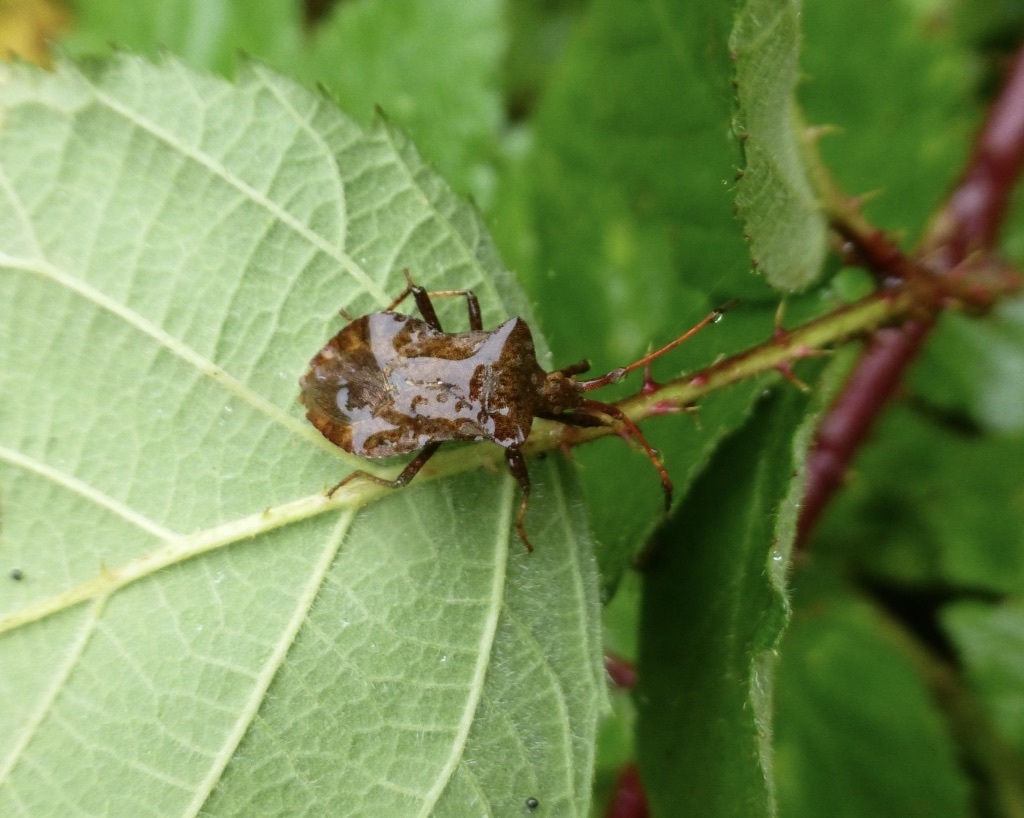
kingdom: Animalia
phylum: Arthropoda
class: Insecta
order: Hemiptera
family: Coreidae
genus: Coreus
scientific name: Coreus marginatus
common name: Dock bug
